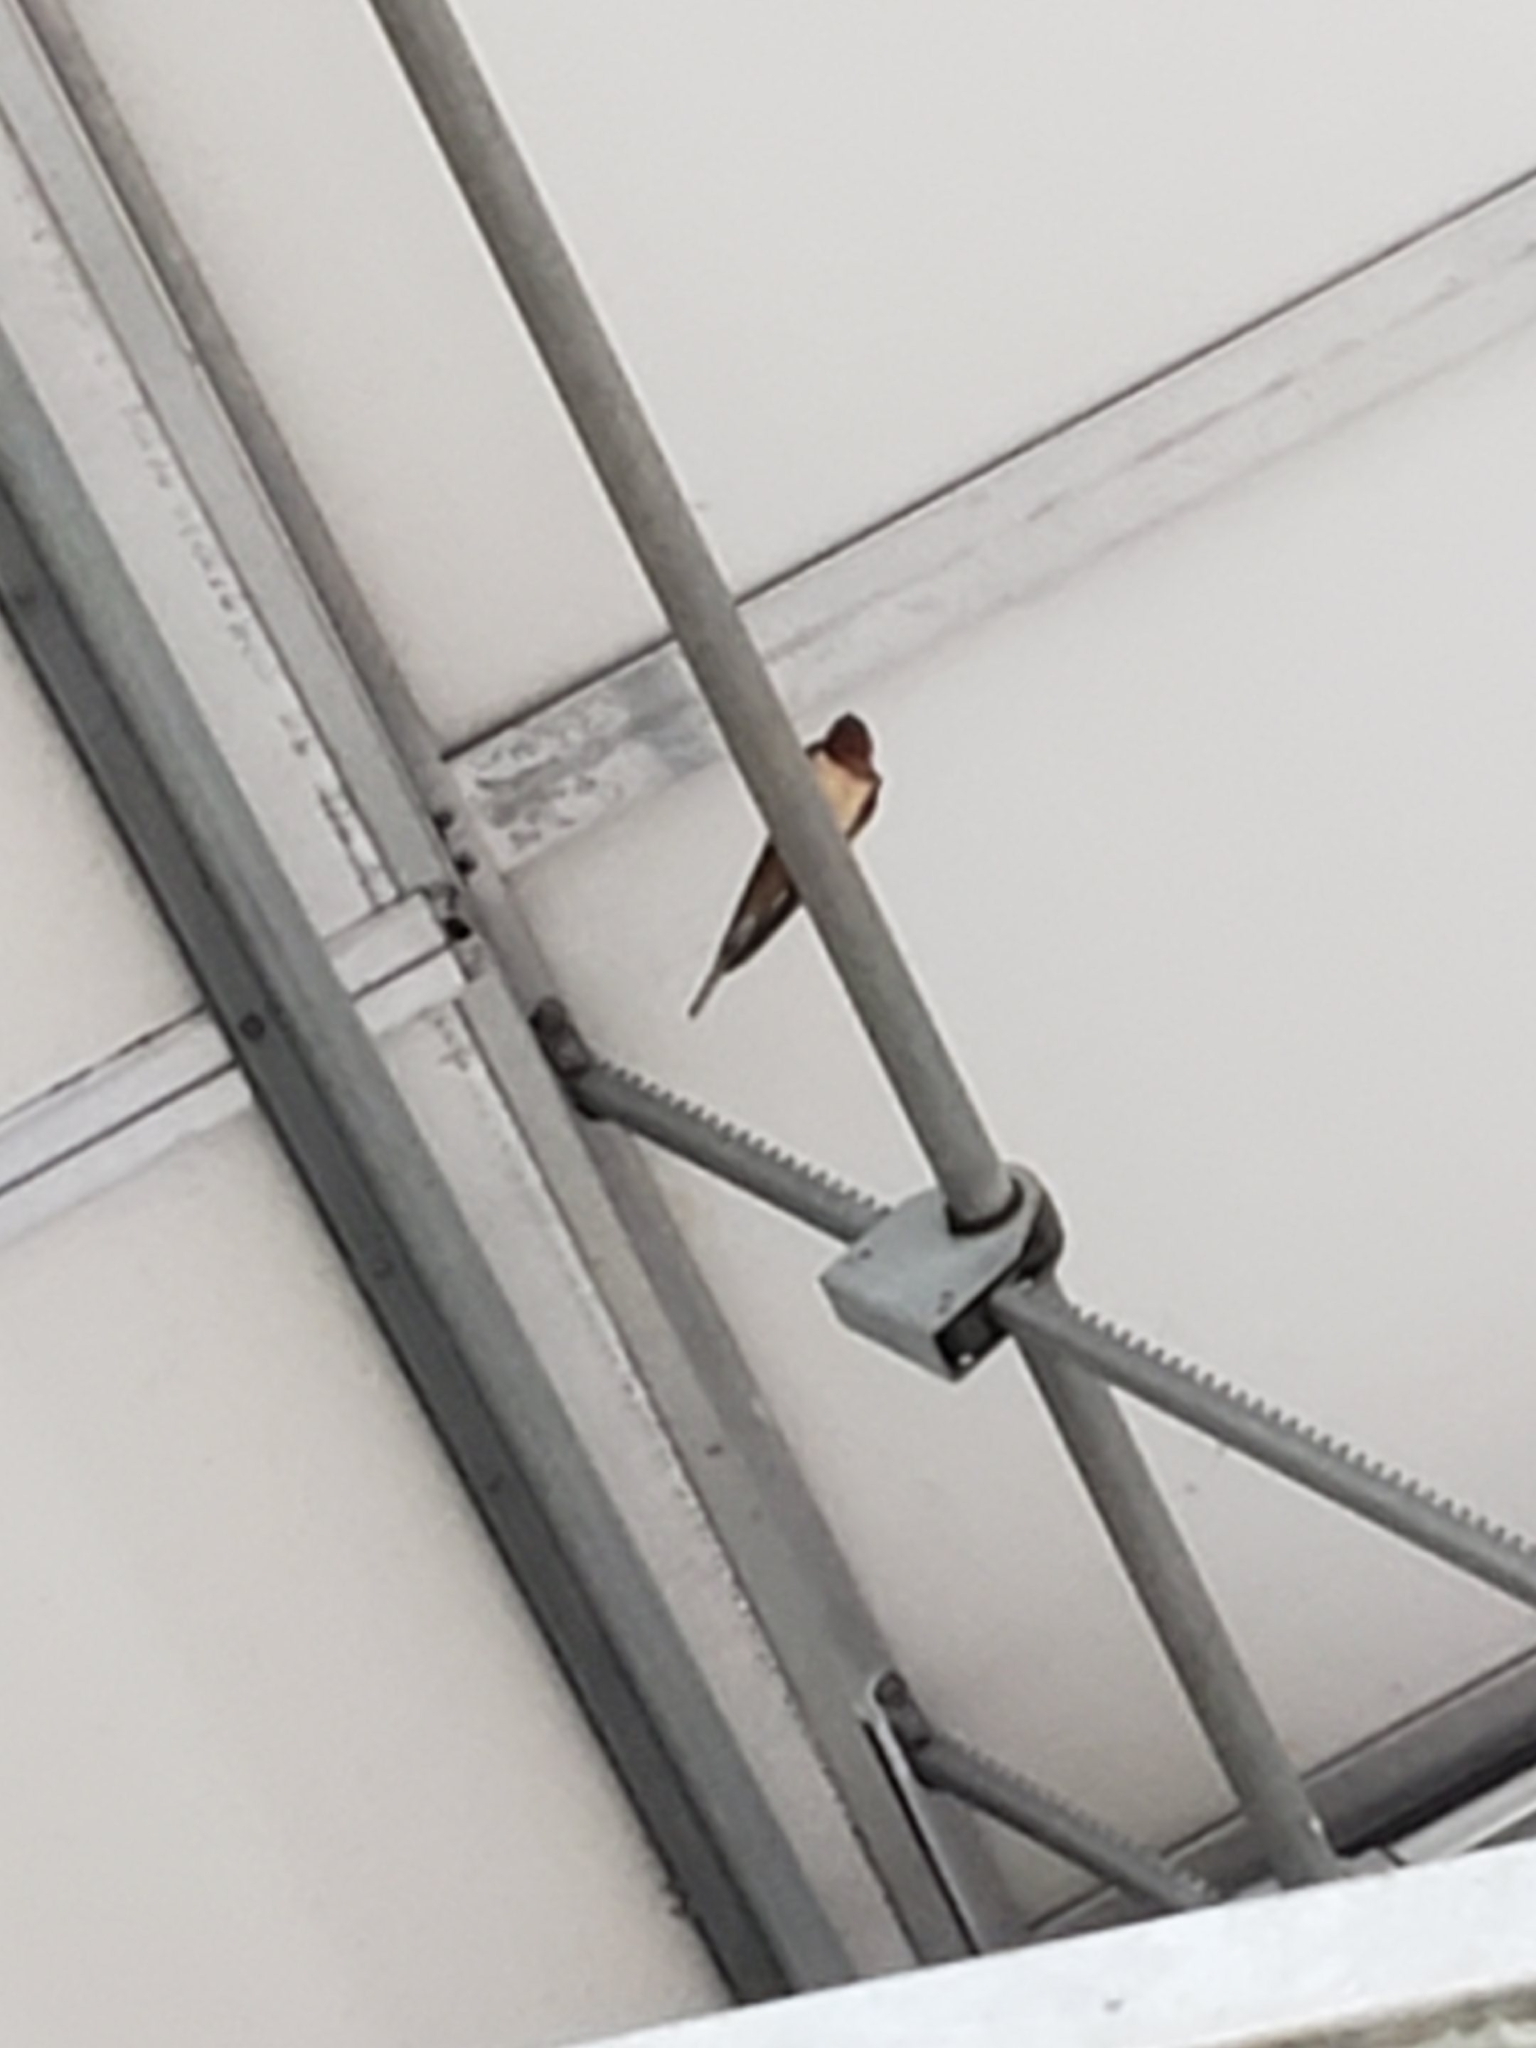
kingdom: Animalia
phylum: Chordata
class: Aves
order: Passeriformes
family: Hirundinidae
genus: Hirundo
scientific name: Hirundo rustica
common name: Barn swallow
